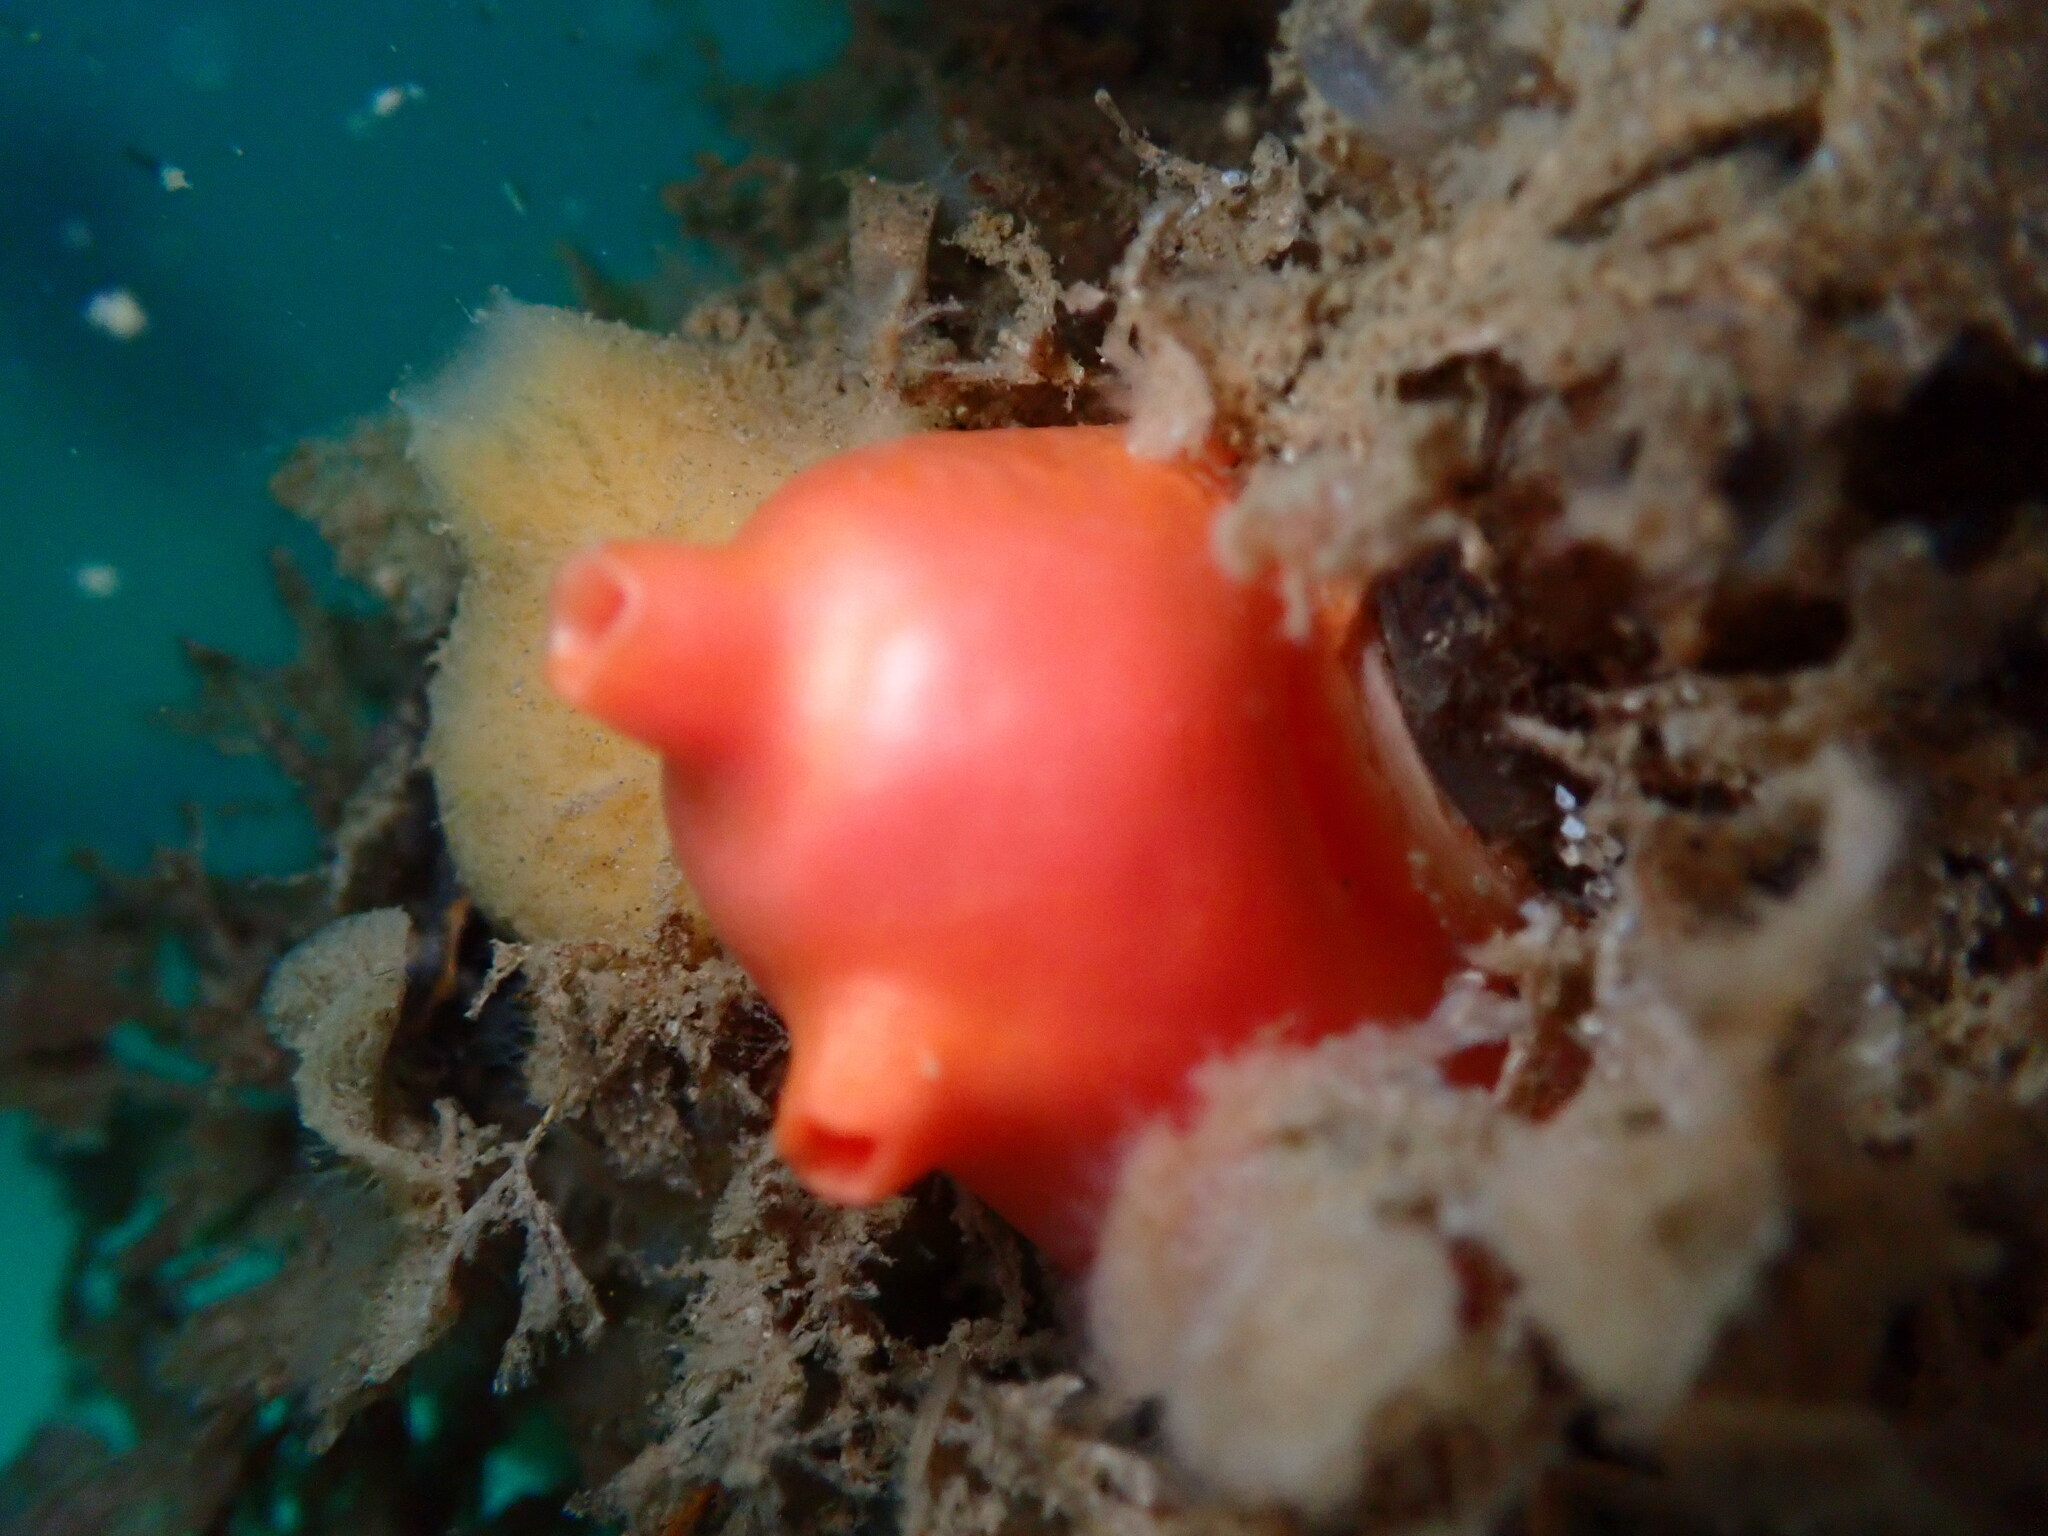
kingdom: Animalia
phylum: Chordata
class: Ascidiacea
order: Stolidobranchia
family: Styelidae
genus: Cnemidocarpa
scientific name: Cnemidocarpa finmarkiensis
